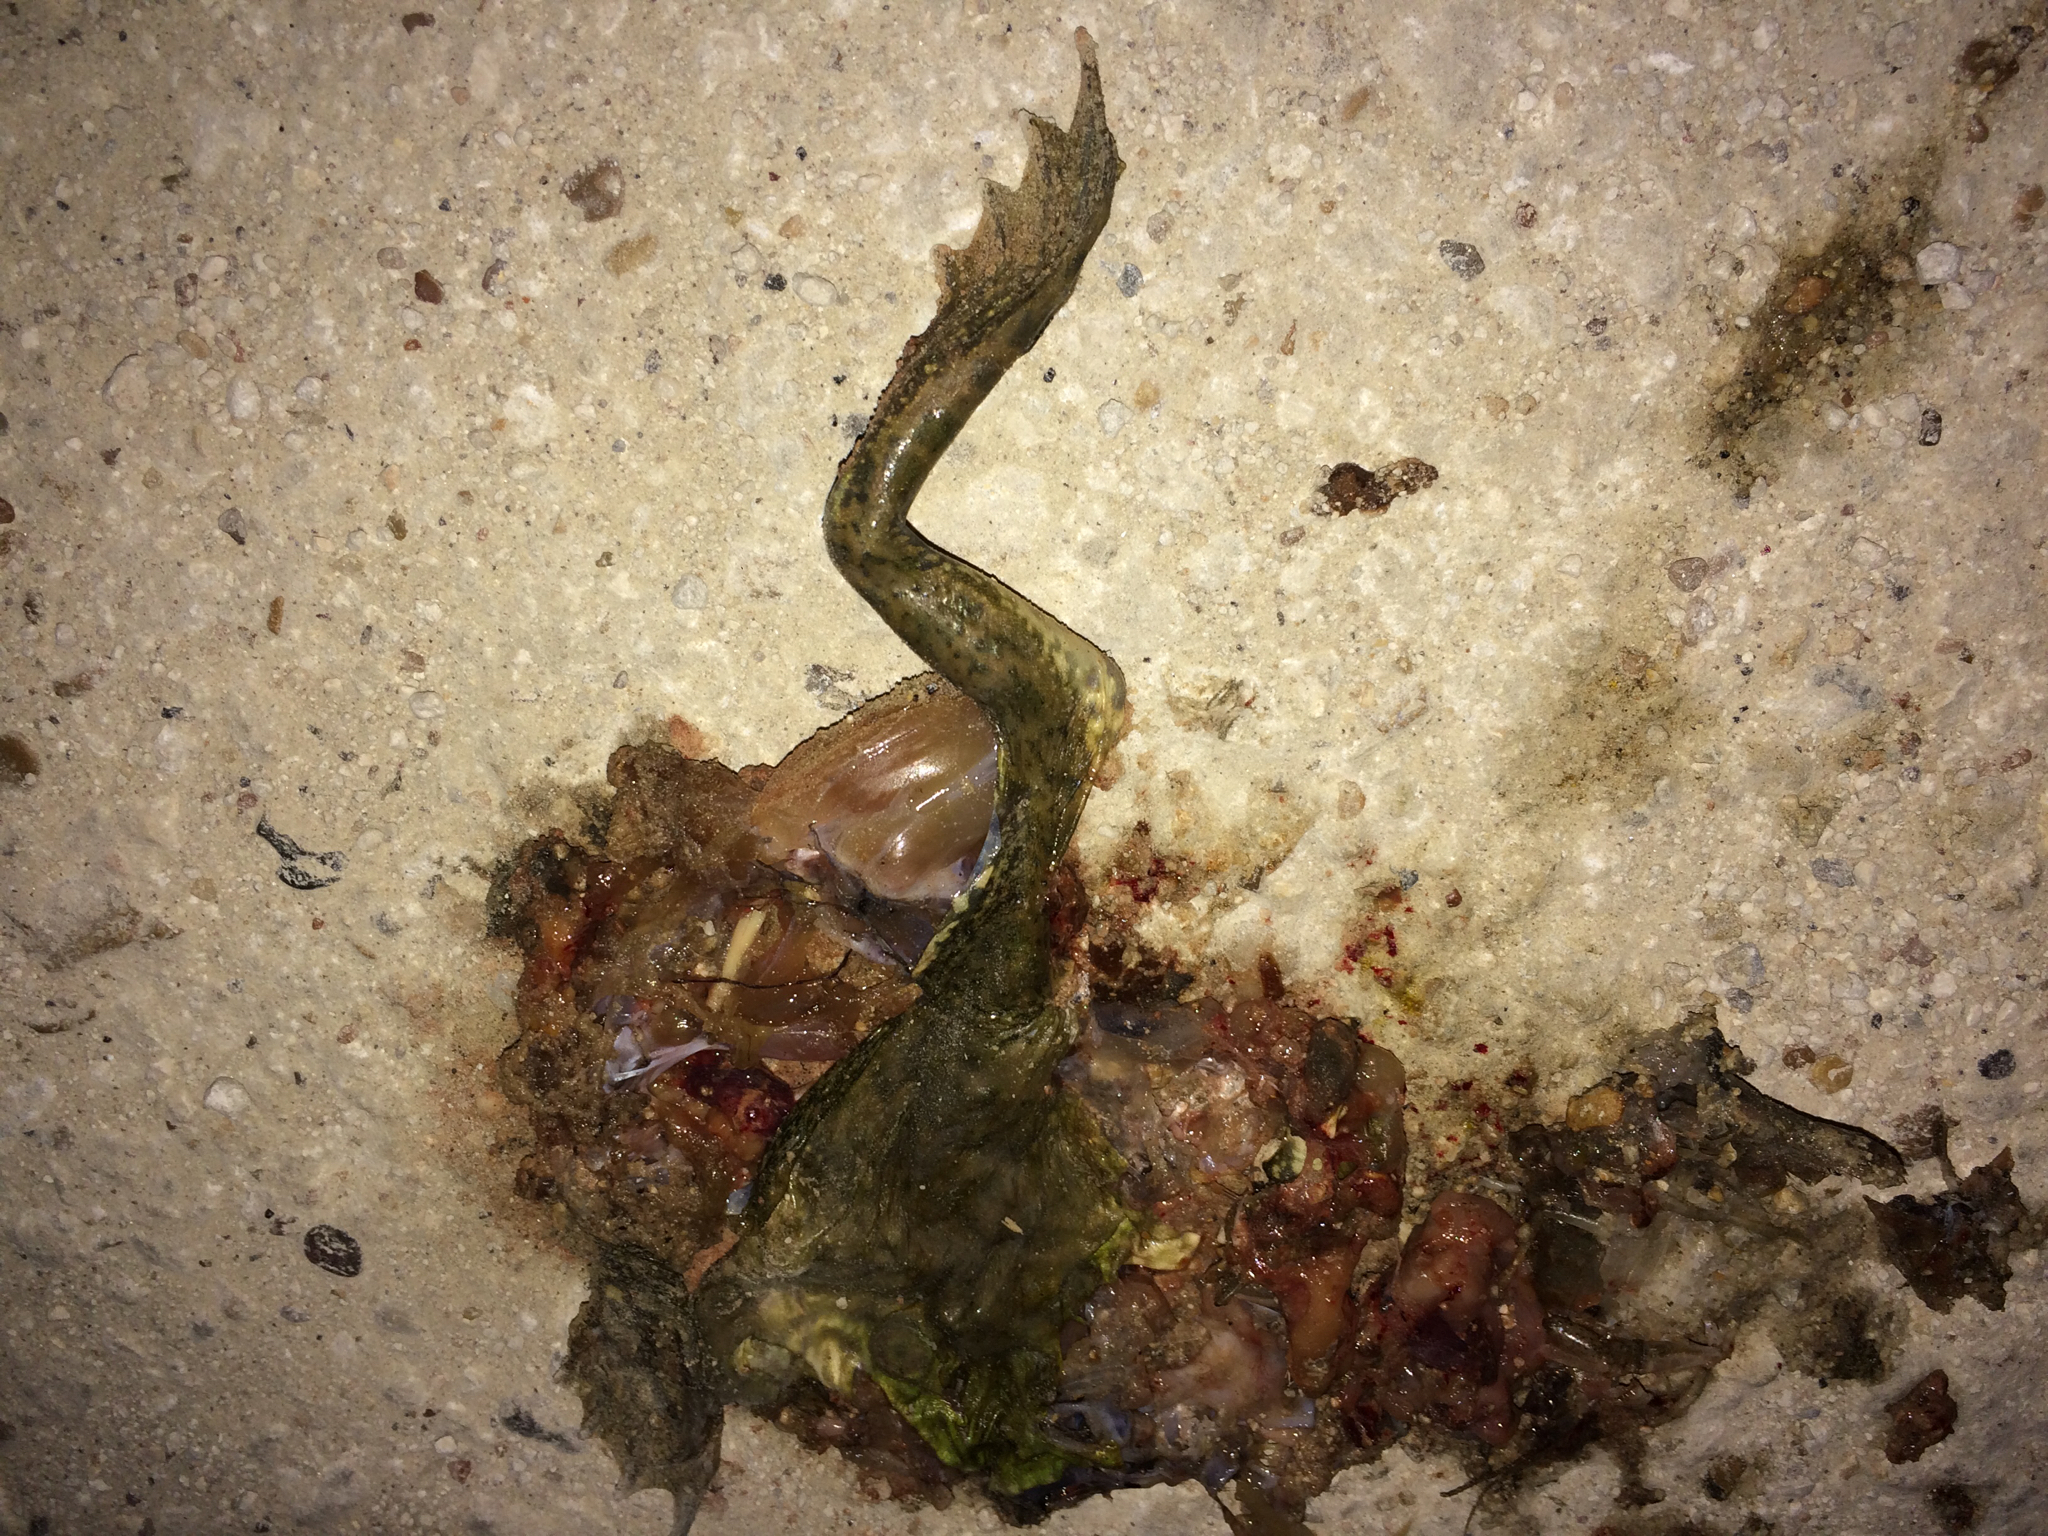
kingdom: Animalia
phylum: Chordata
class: Amphibia
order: Anura
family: Ranidae
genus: Lithobates
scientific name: Lithobates
